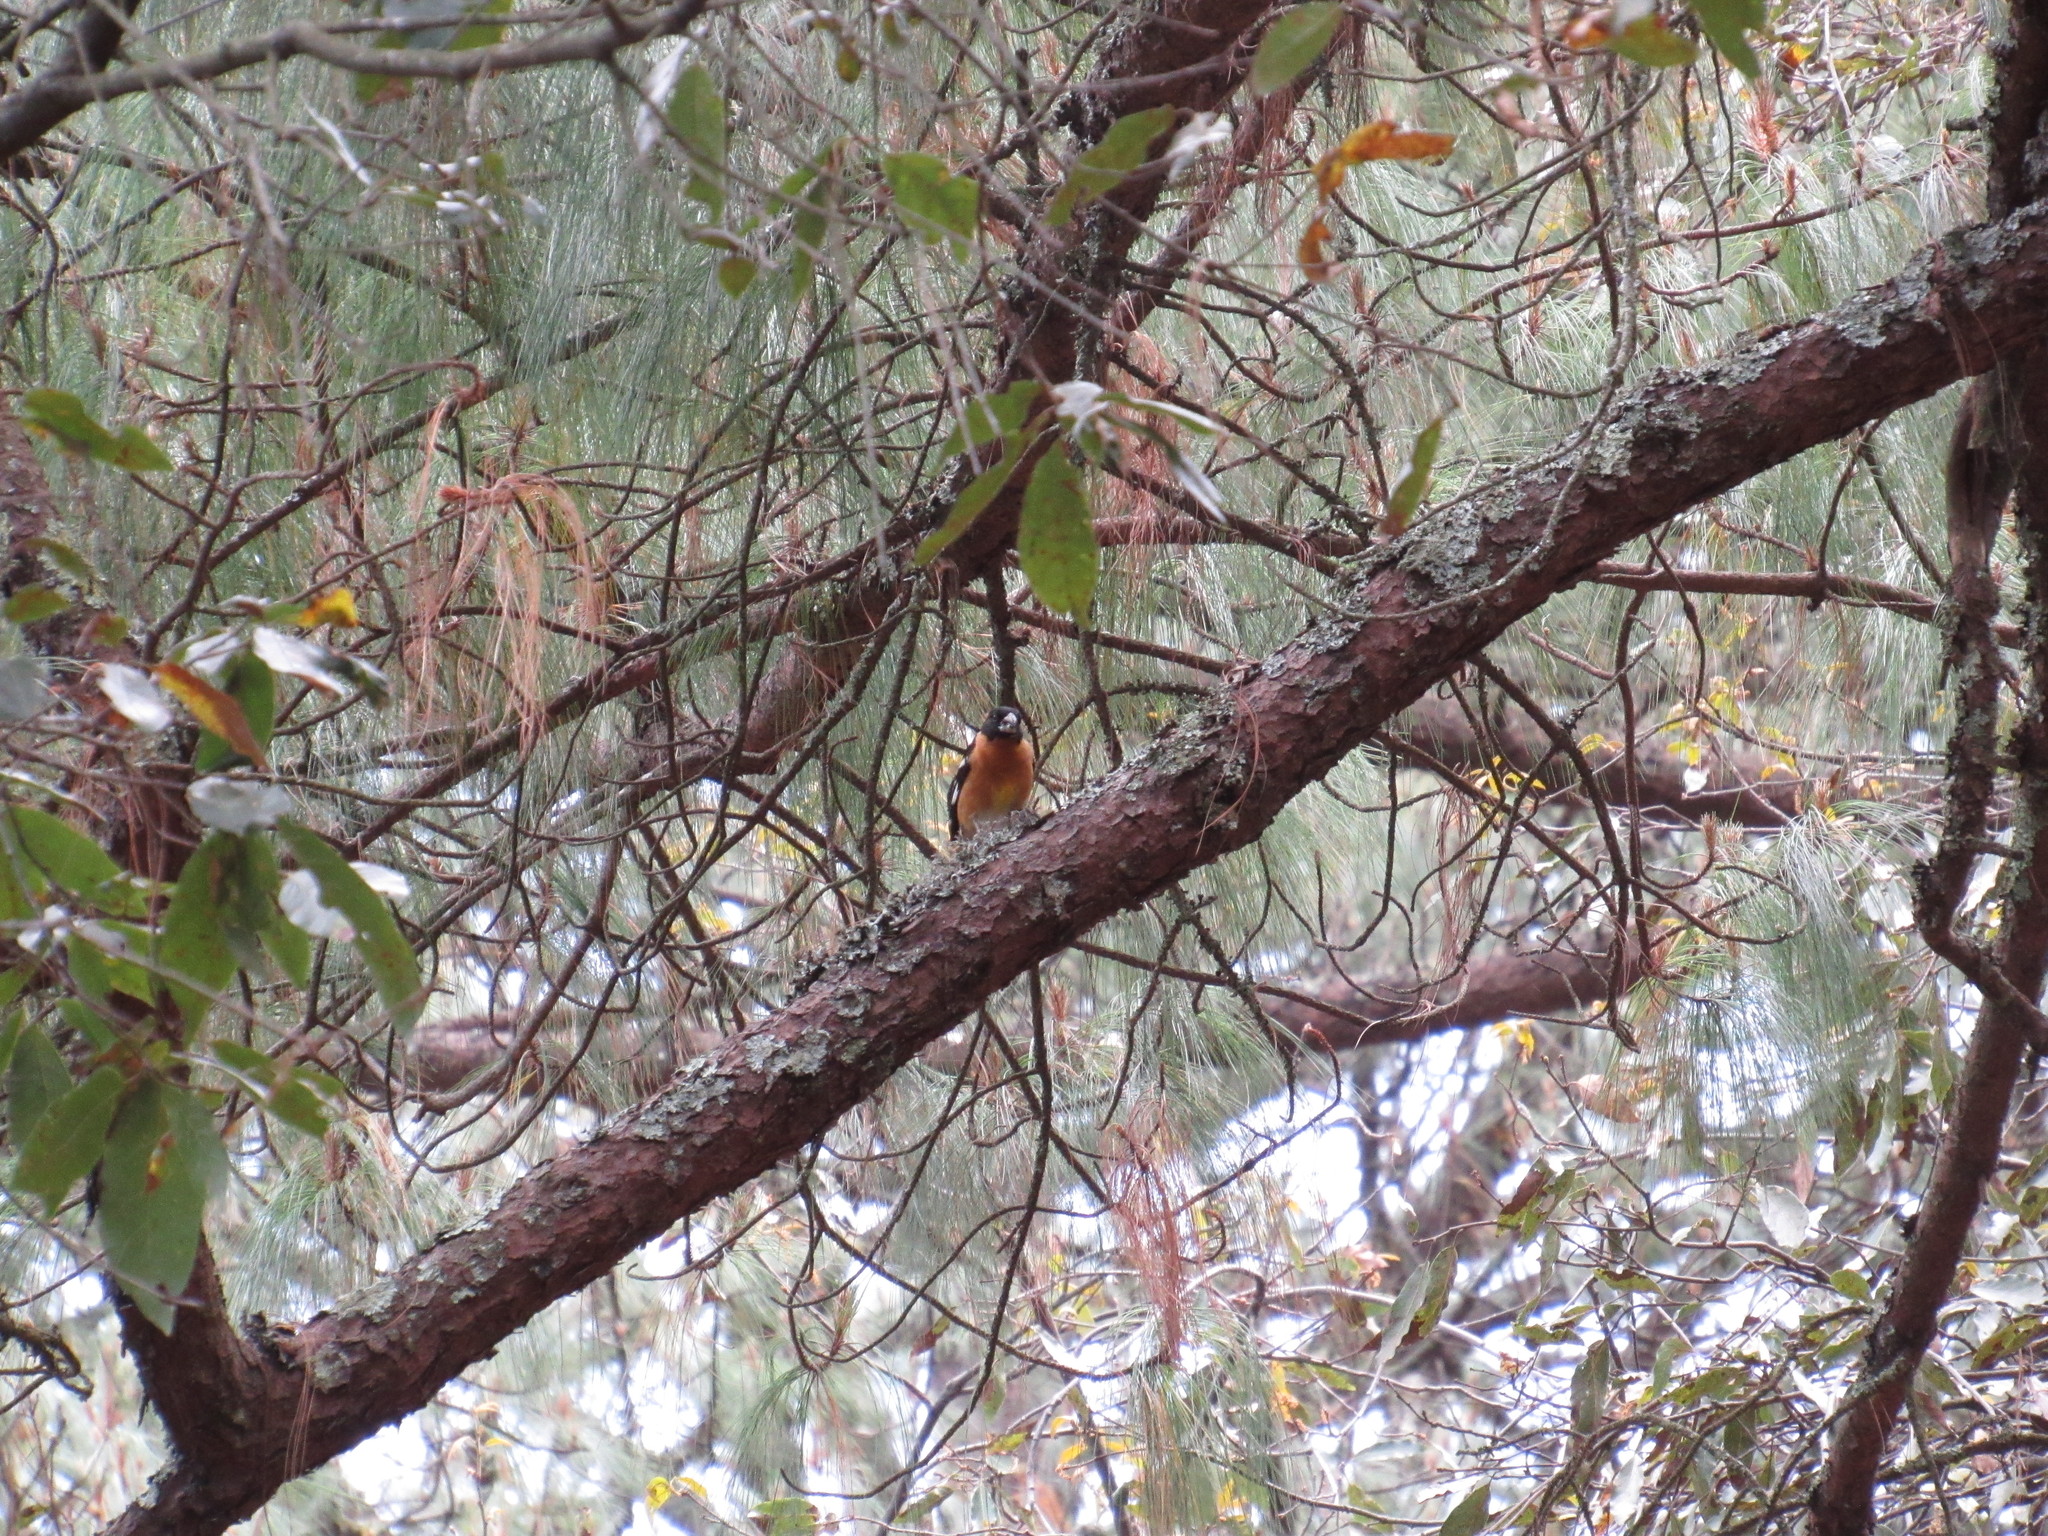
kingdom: Animalia
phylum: Chordata
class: Aves
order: Passeriformes
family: Cardinalidae
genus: Pheucticus
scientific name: Pheucticus melanocephalus
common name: Black-headed grosbeak
